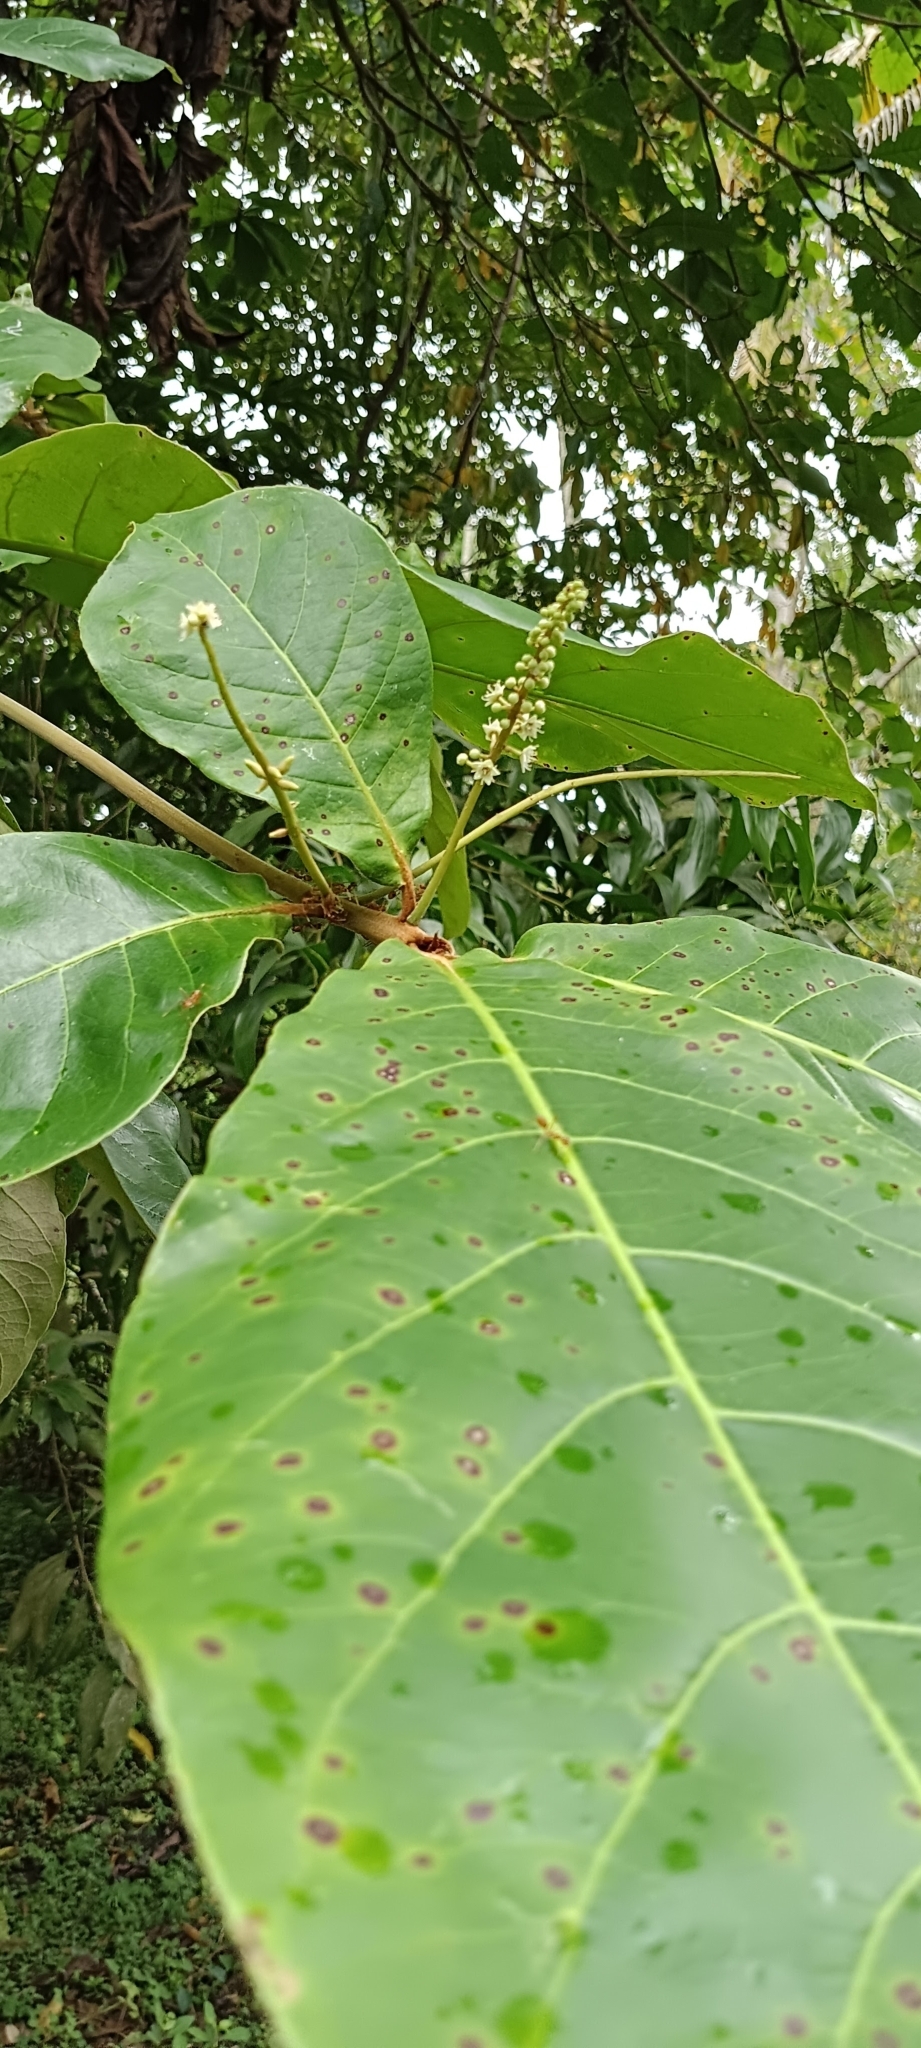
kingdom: Plantae
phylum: Tracheophyta
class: Magnoliopsida
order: Myrtales
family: Combretaceae
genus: Terminalia
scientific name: Terminalia catappa
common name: Tropical almond
